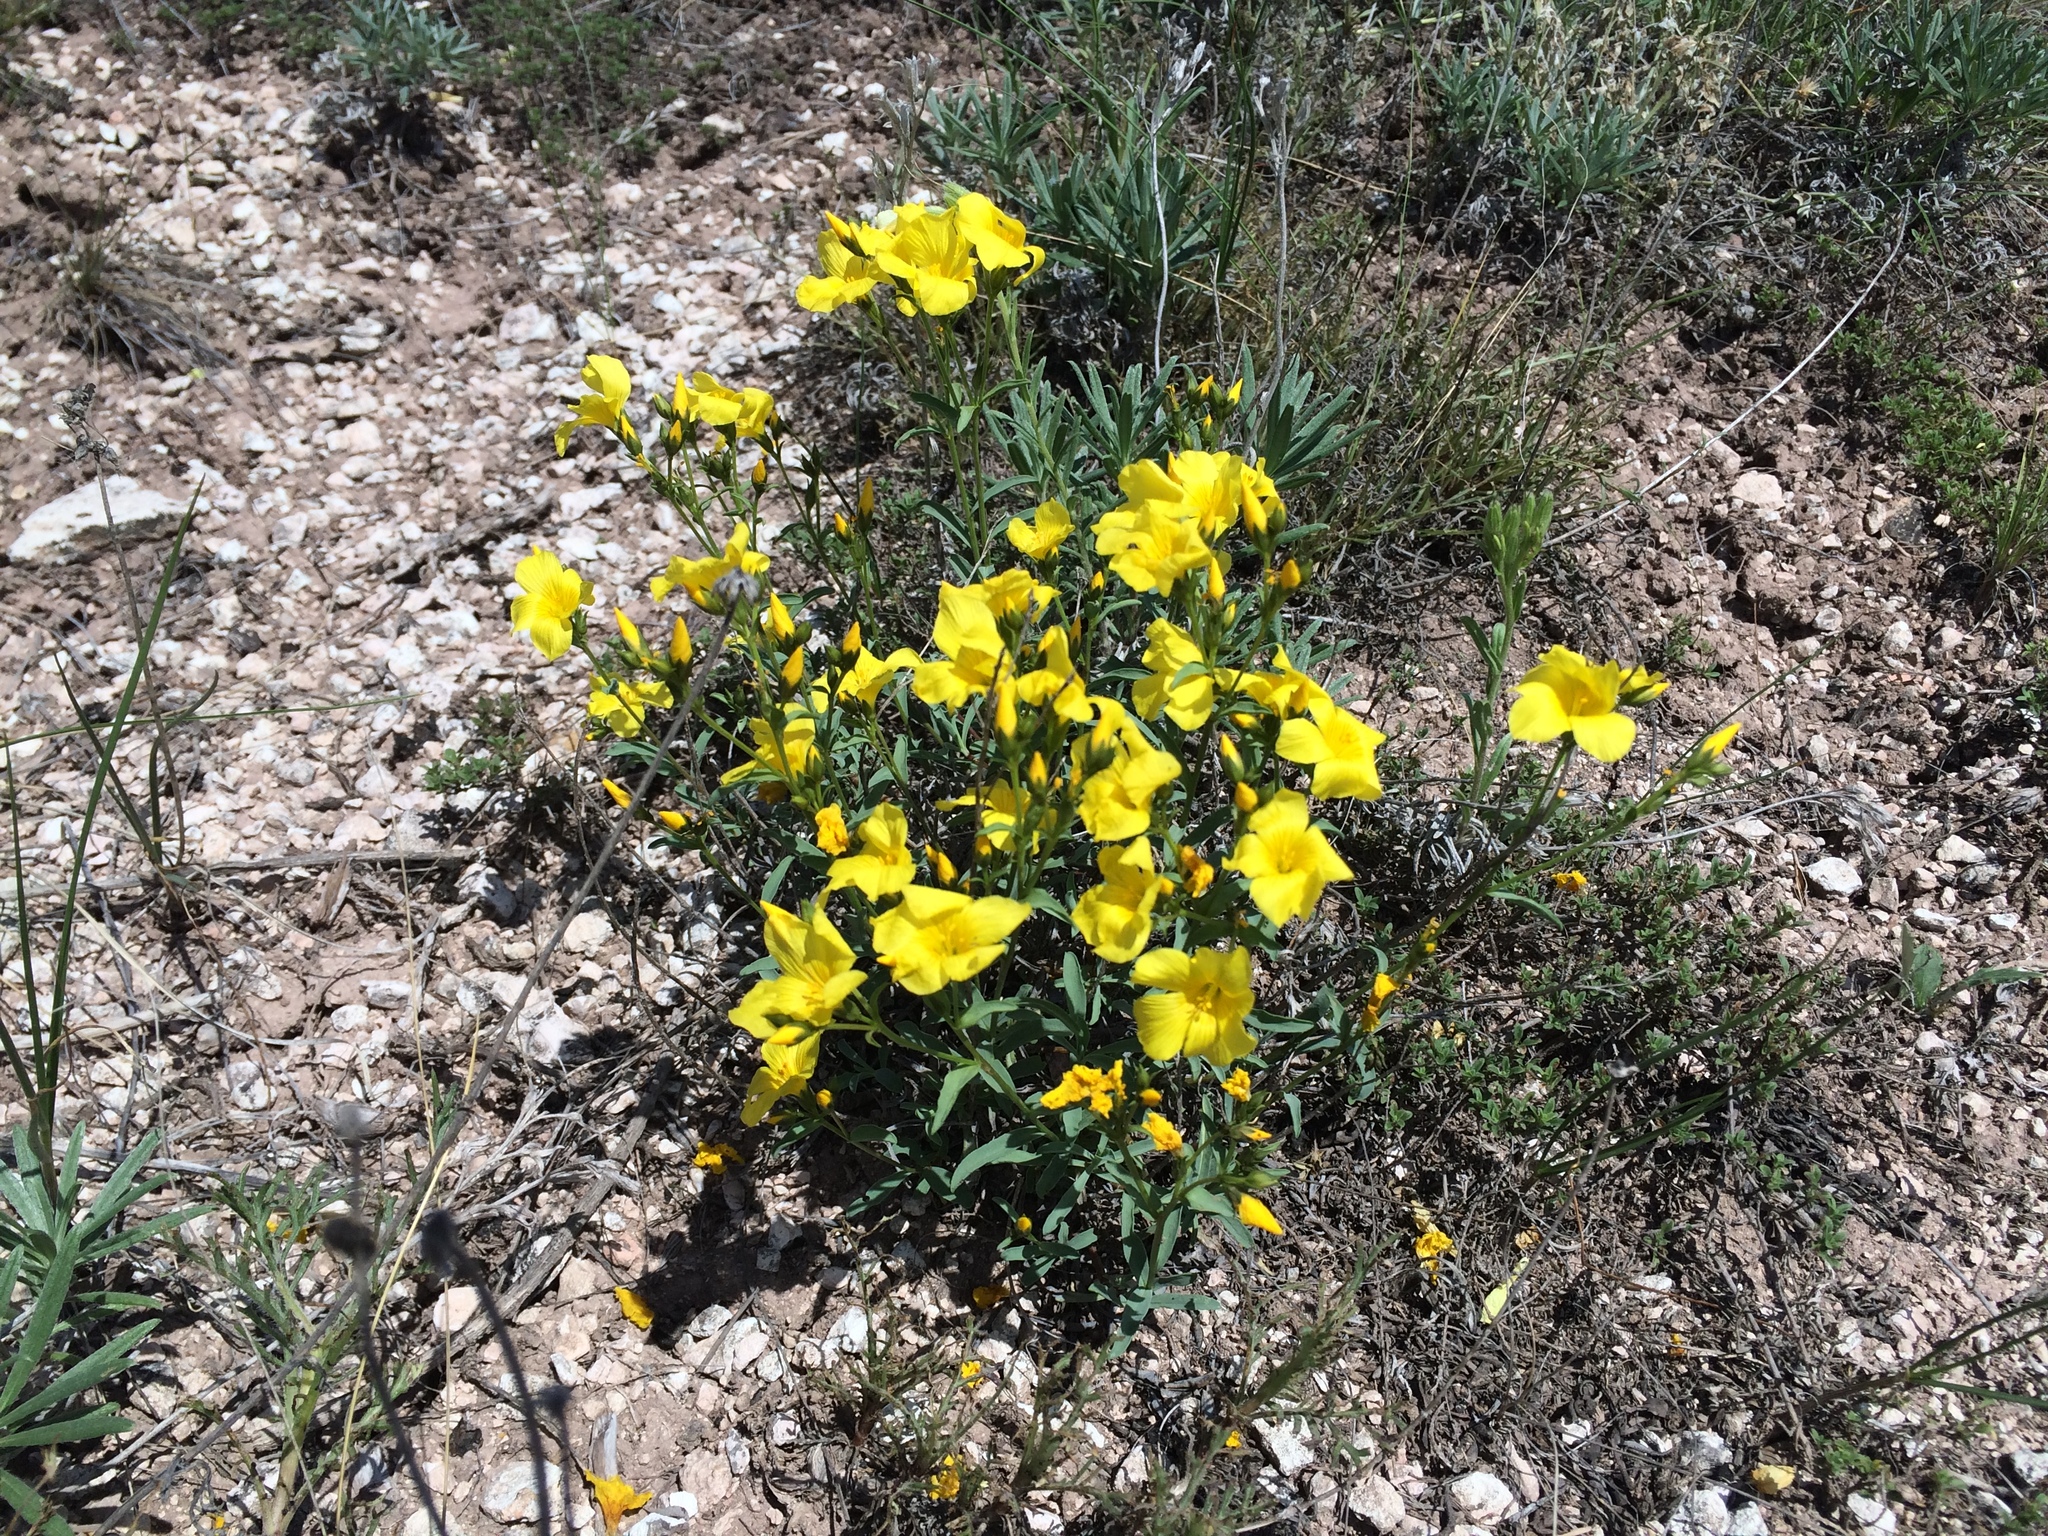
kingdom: Plantae
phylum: Tracheophyta
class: Magnoliopsida
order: Malpighiales
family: Linaceae
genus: Linum
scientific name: Linum flavum
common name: Yellow flax
